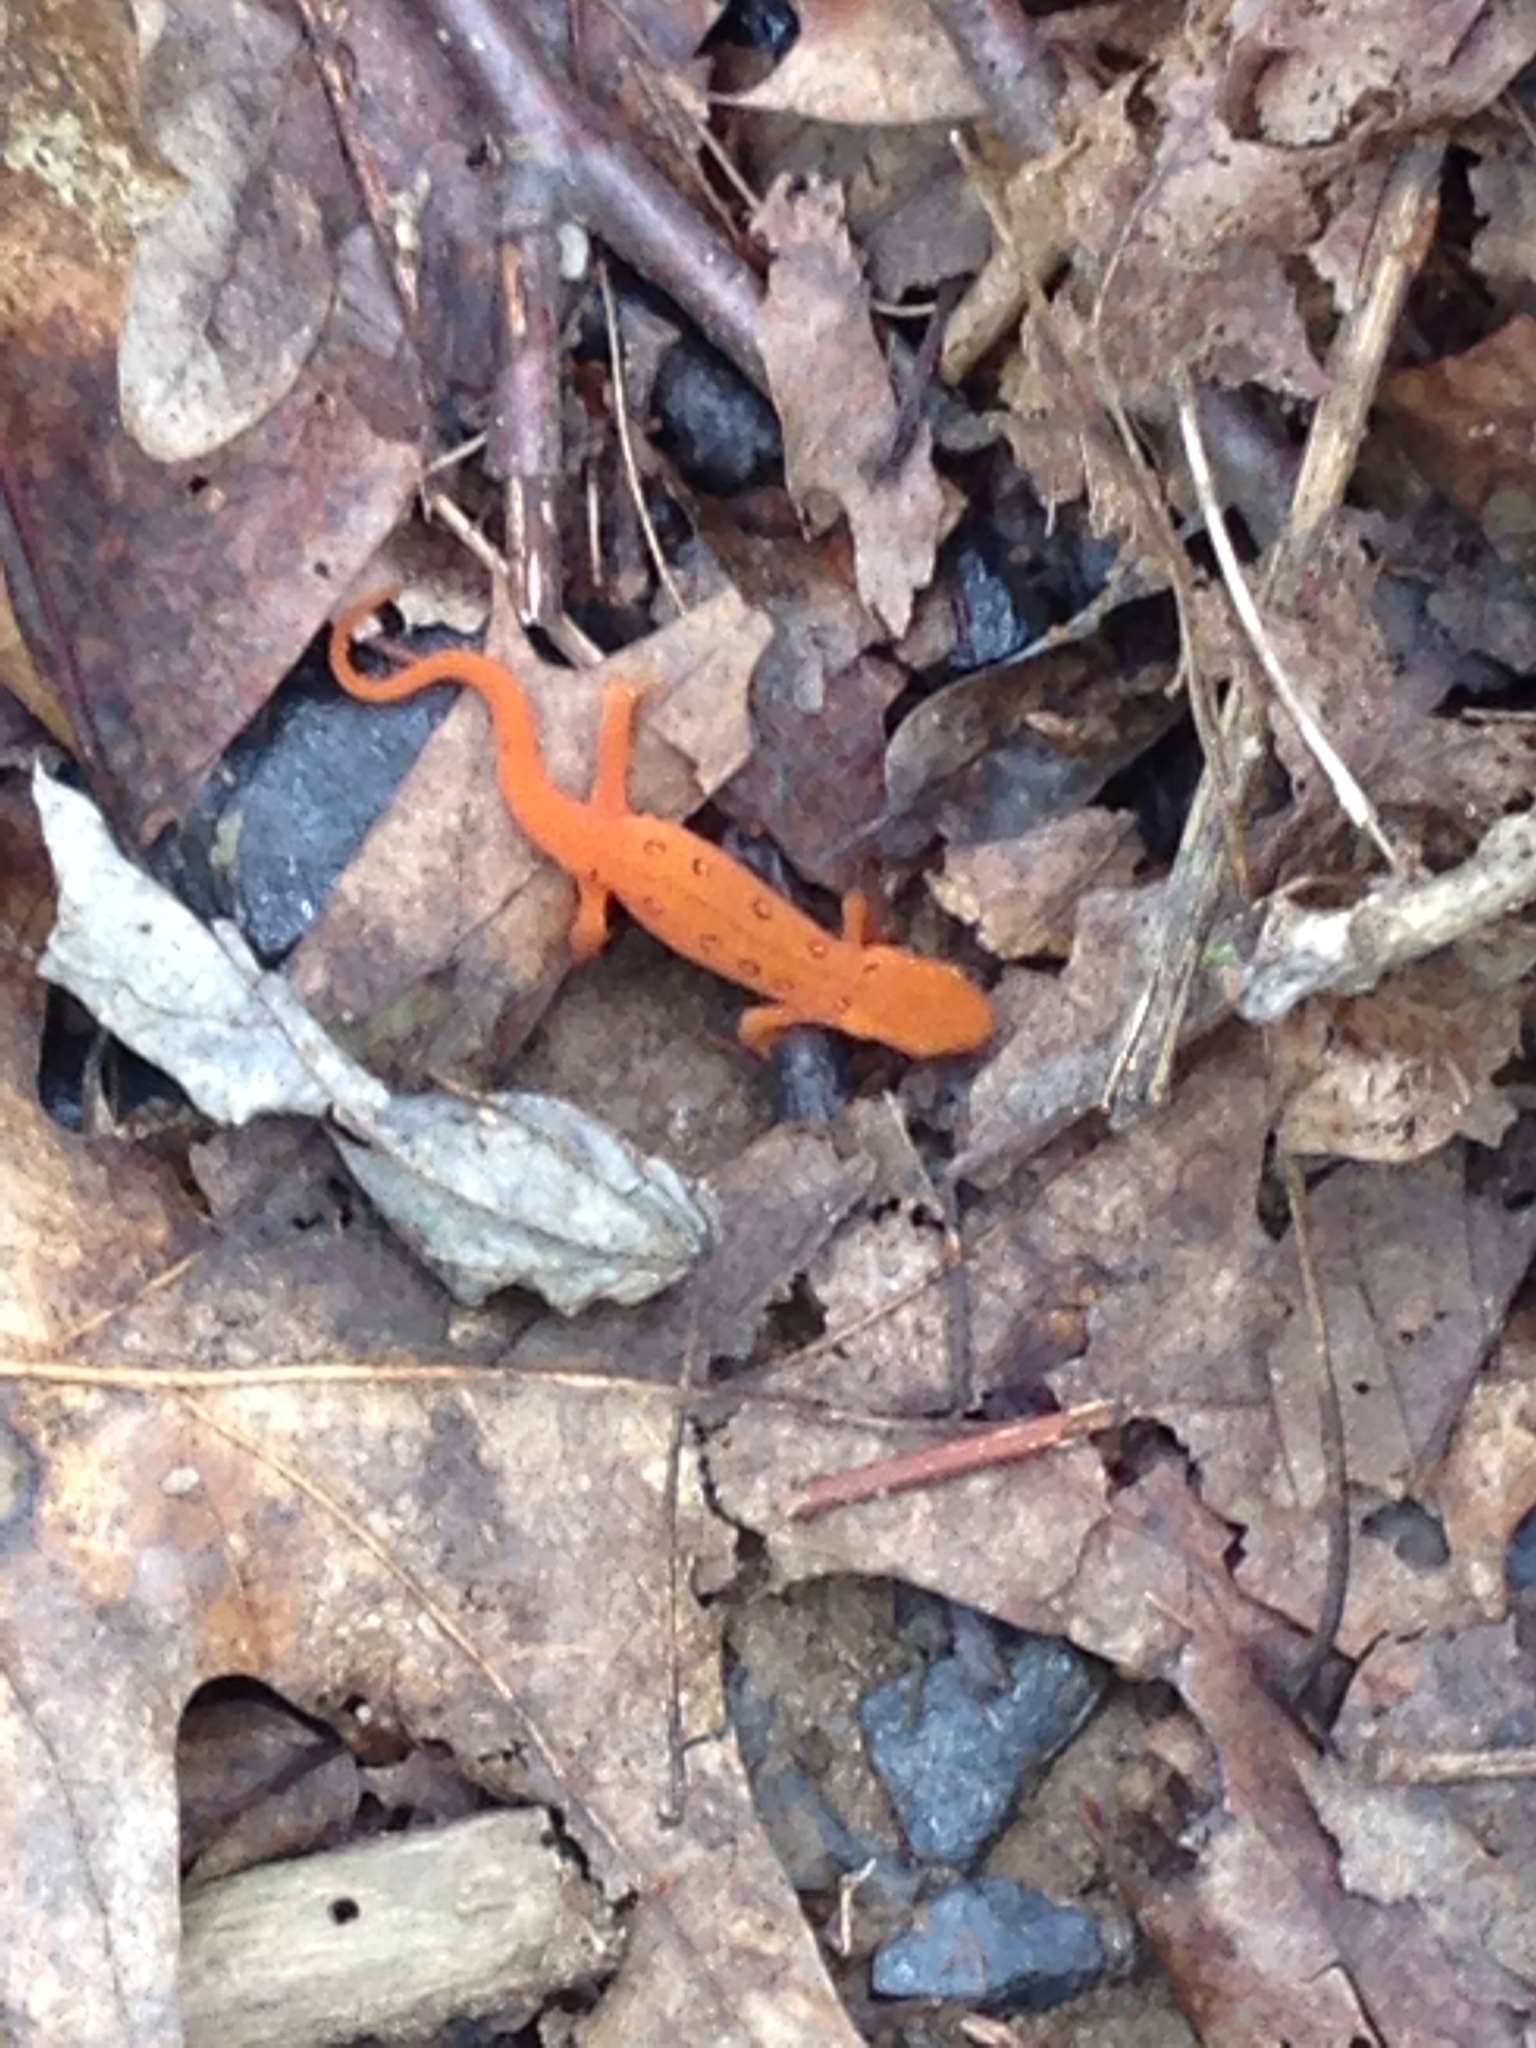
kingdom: Animalia
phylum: Chordata
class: Amphibia
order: Caudata
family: Salamandridae
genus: Notophthalmus
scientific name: Notophthalmus viridescens
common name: Eastern newt
